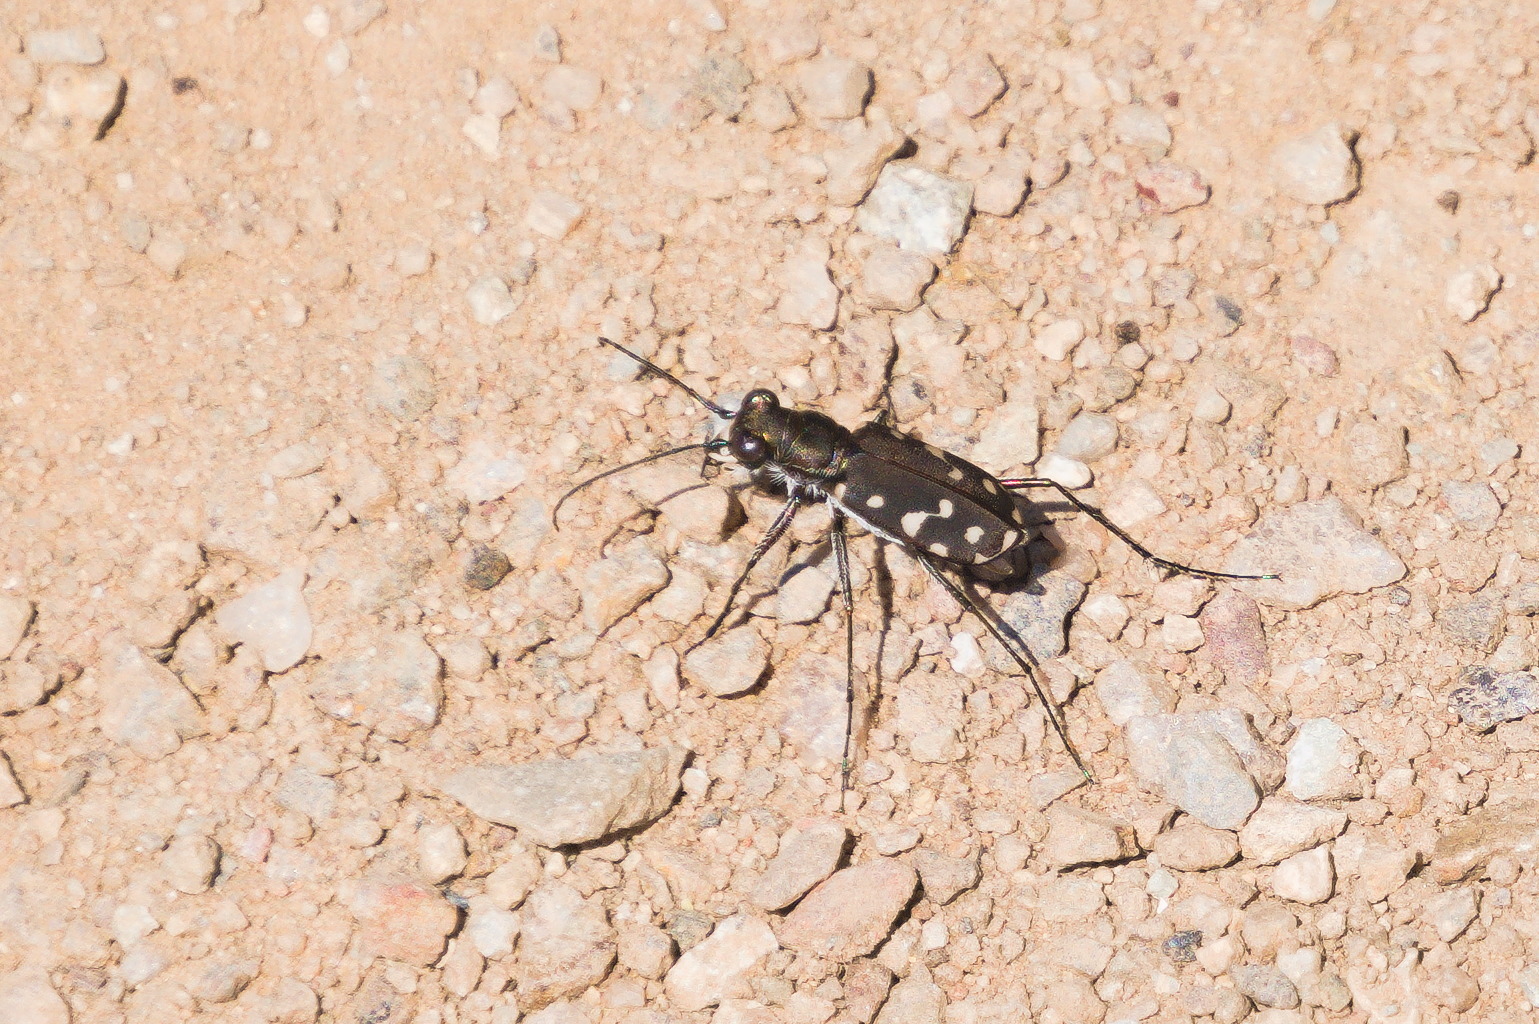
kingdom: Animalia
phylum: Arthropoda
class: Insecta
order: Coleoptera
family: Carabidae
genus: Cicindela
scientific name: Cicindela sedecimpunctata
